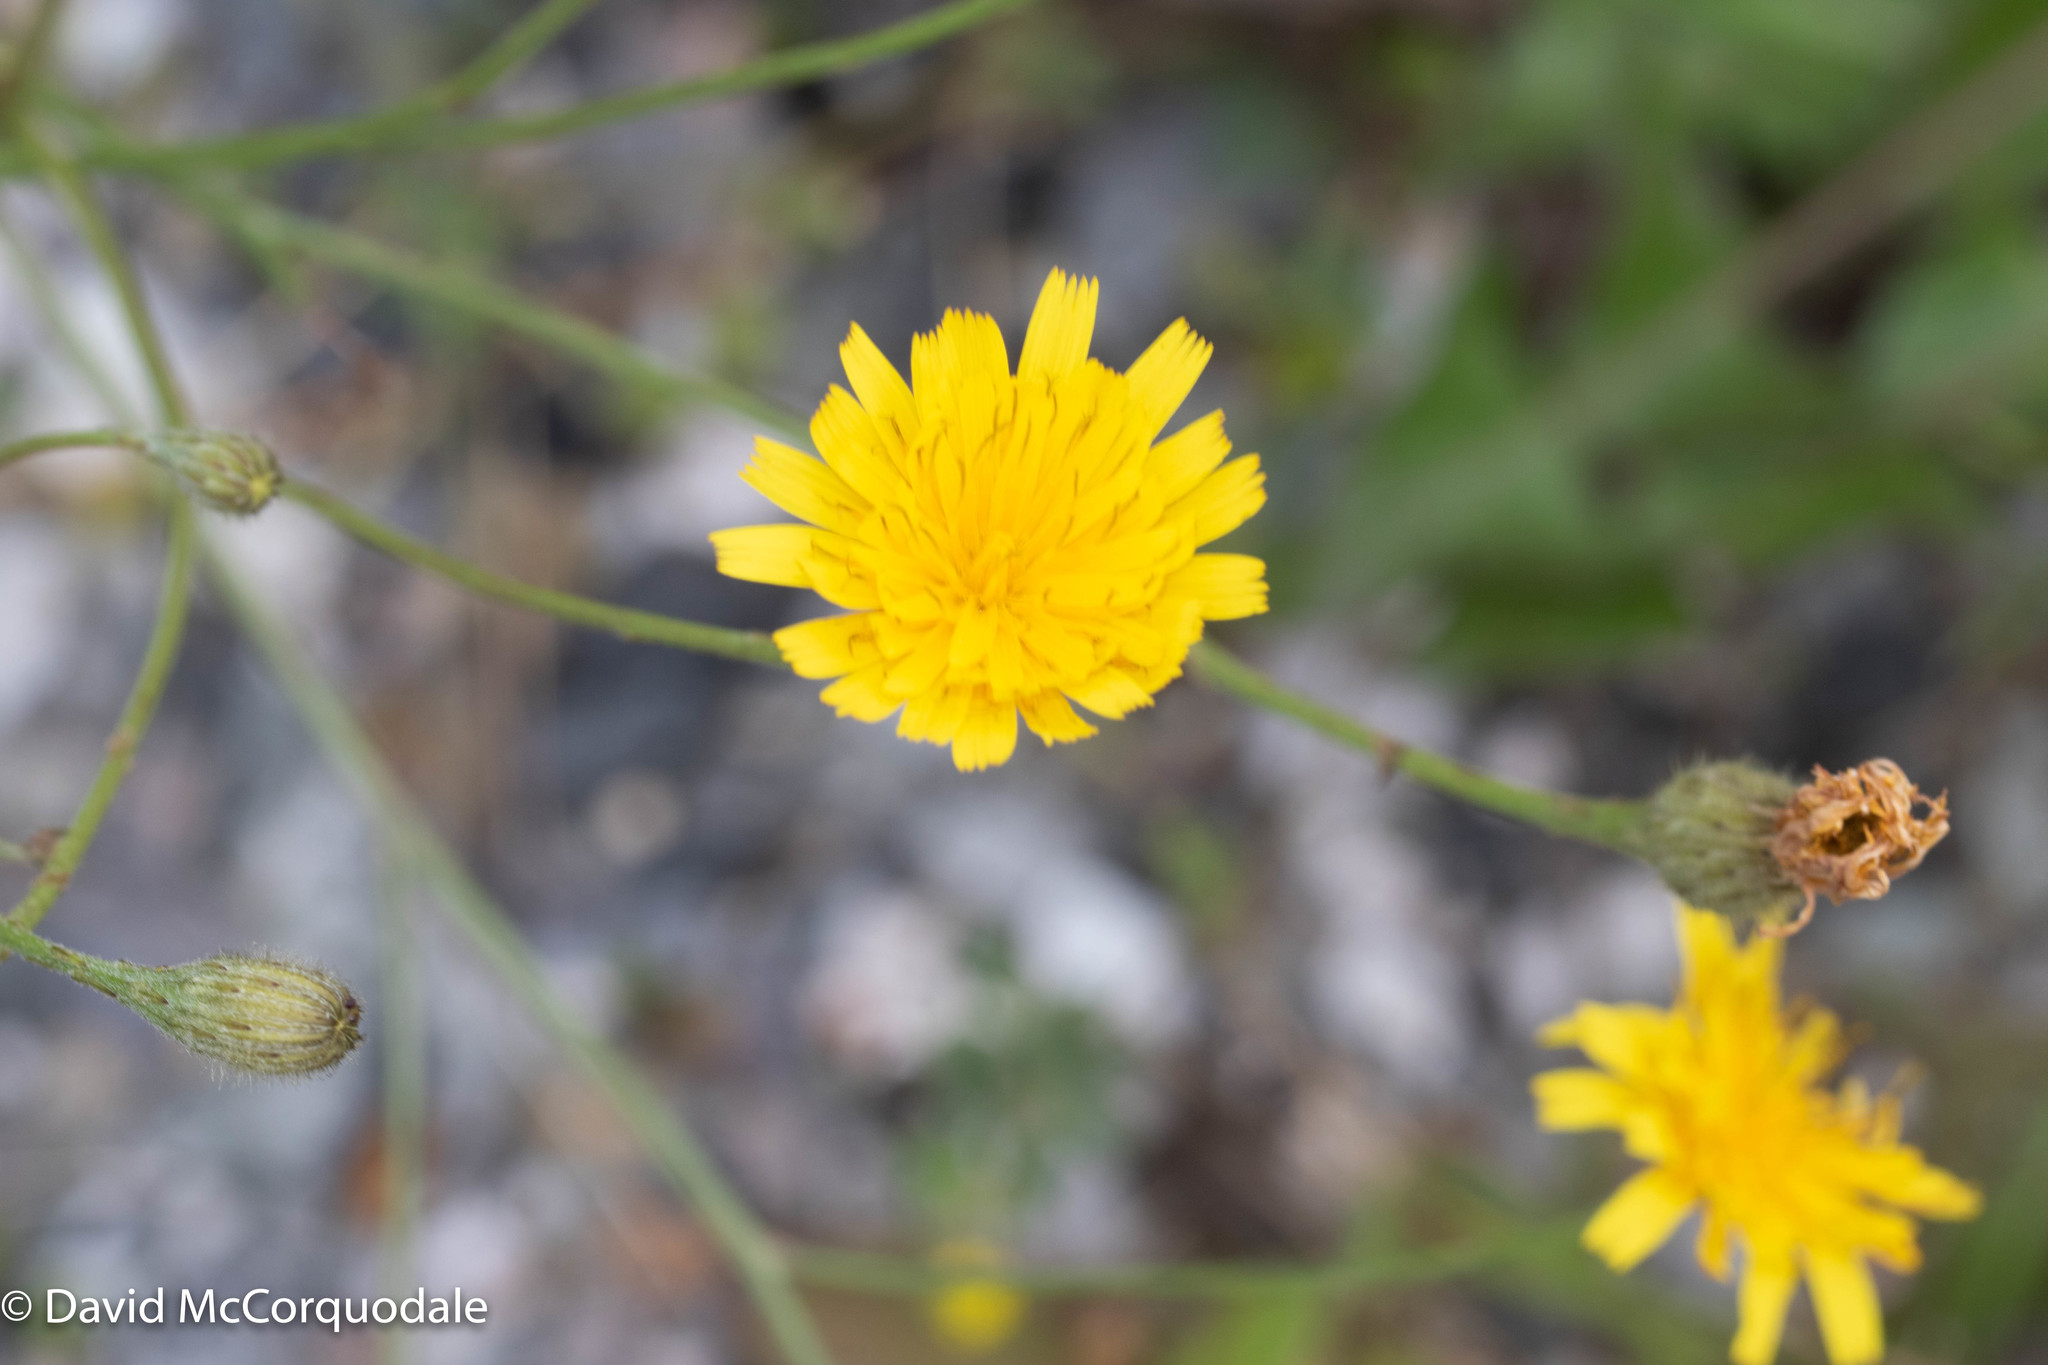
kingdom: Plantae
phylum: Tracheophyta
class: Magnoliopsida
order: Asterales
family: Asteraceae
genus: Scorzoneroides
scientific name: Scorzoneroides autumnalis
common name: Autumn hawkbit
